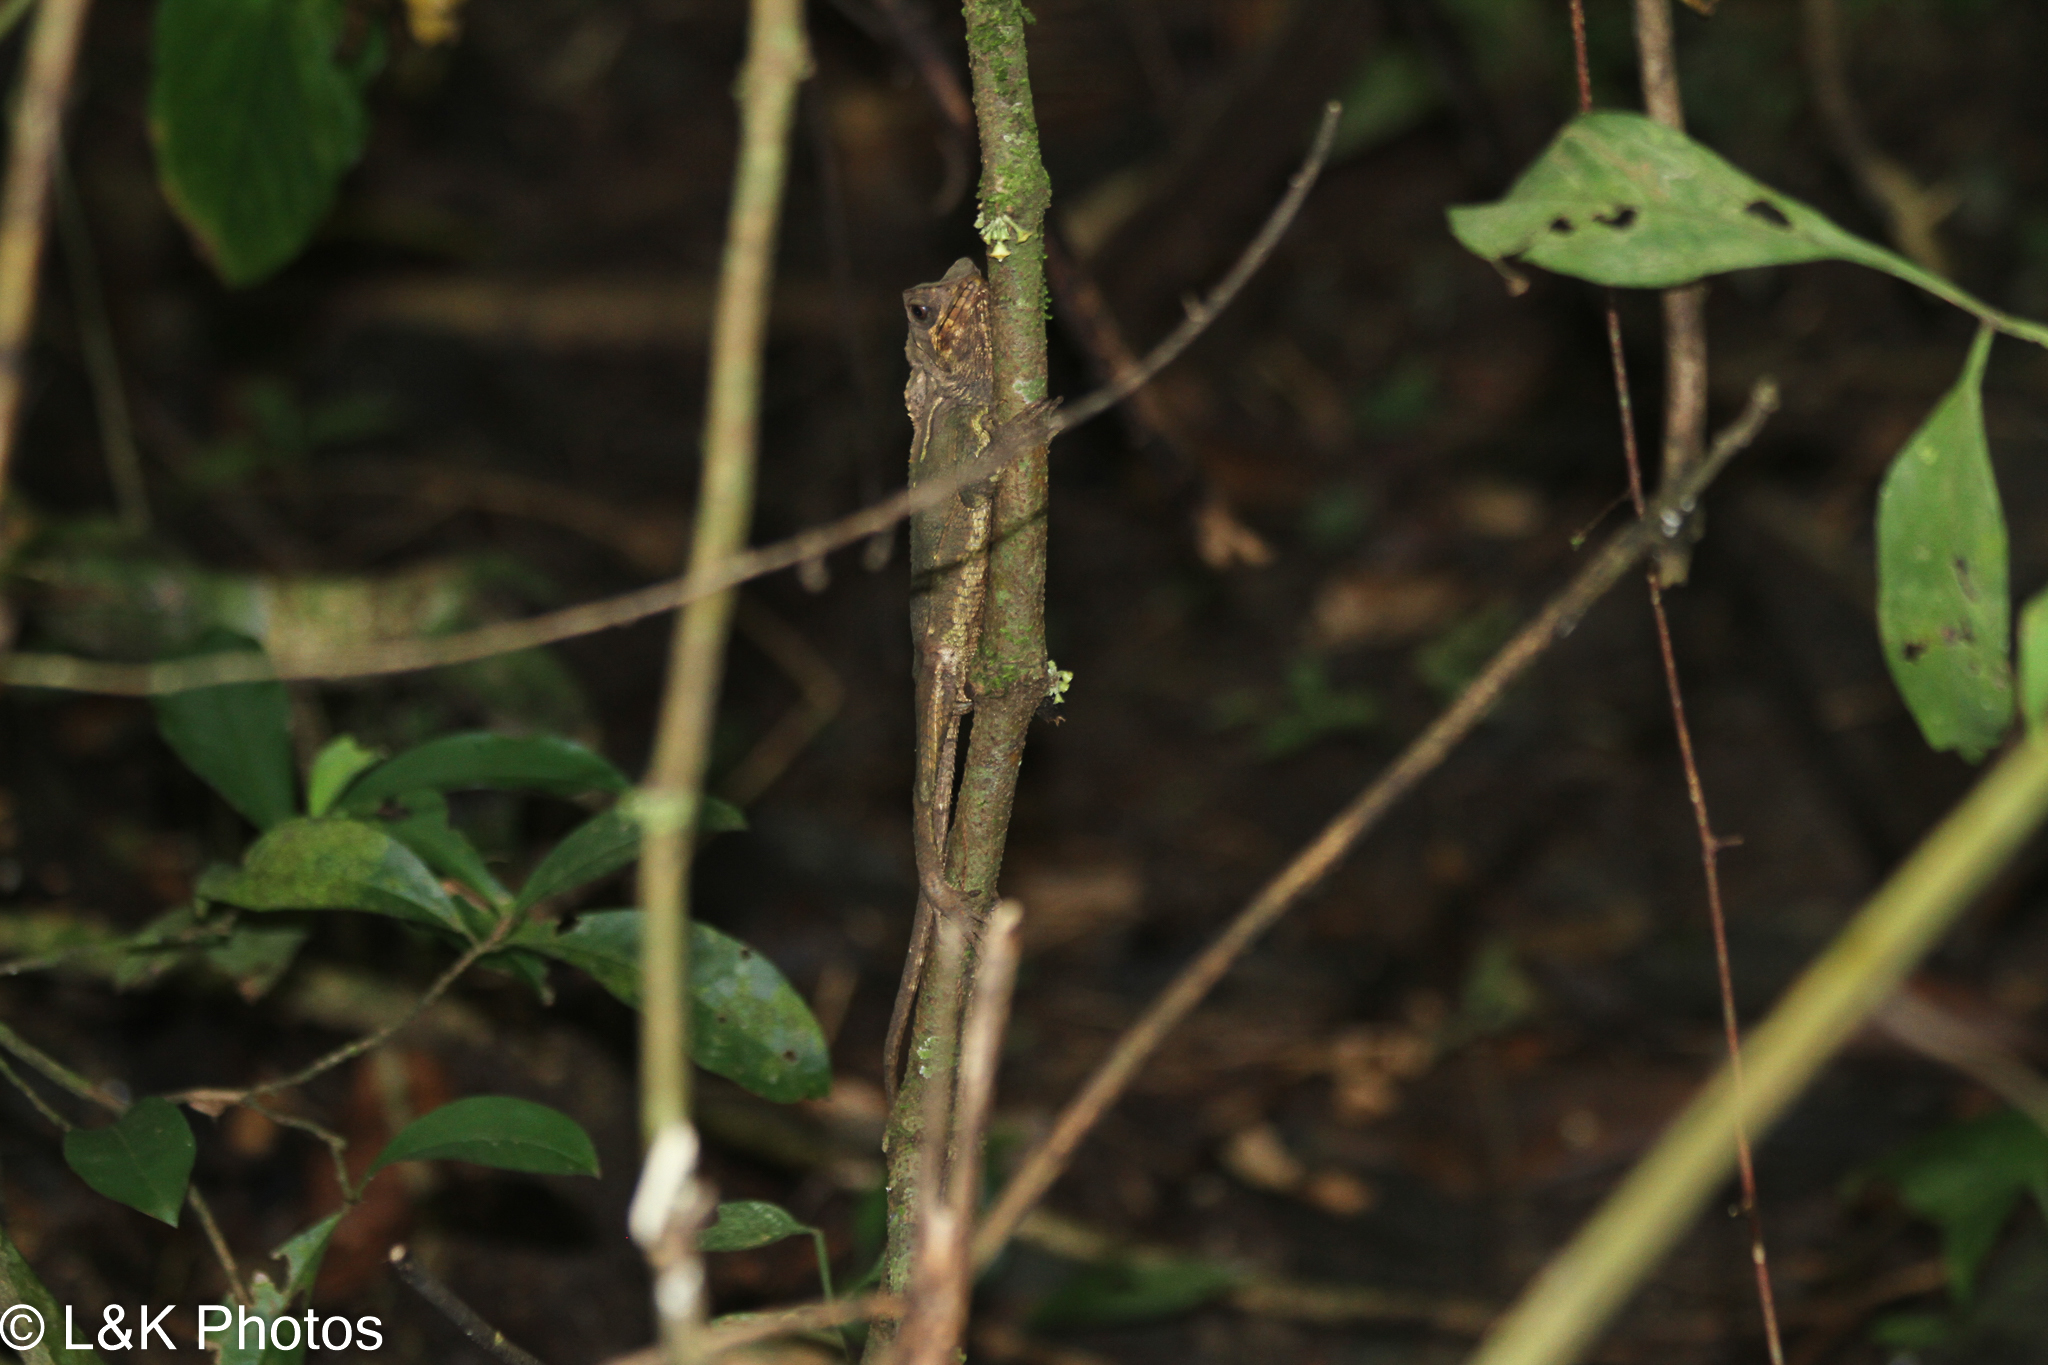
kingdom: Animalia
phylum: Chordata
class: Squamata
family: Corytophanidae
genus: Corytophanes
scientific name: Corytophanes cristatus
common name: Smooth helmeted iguana
